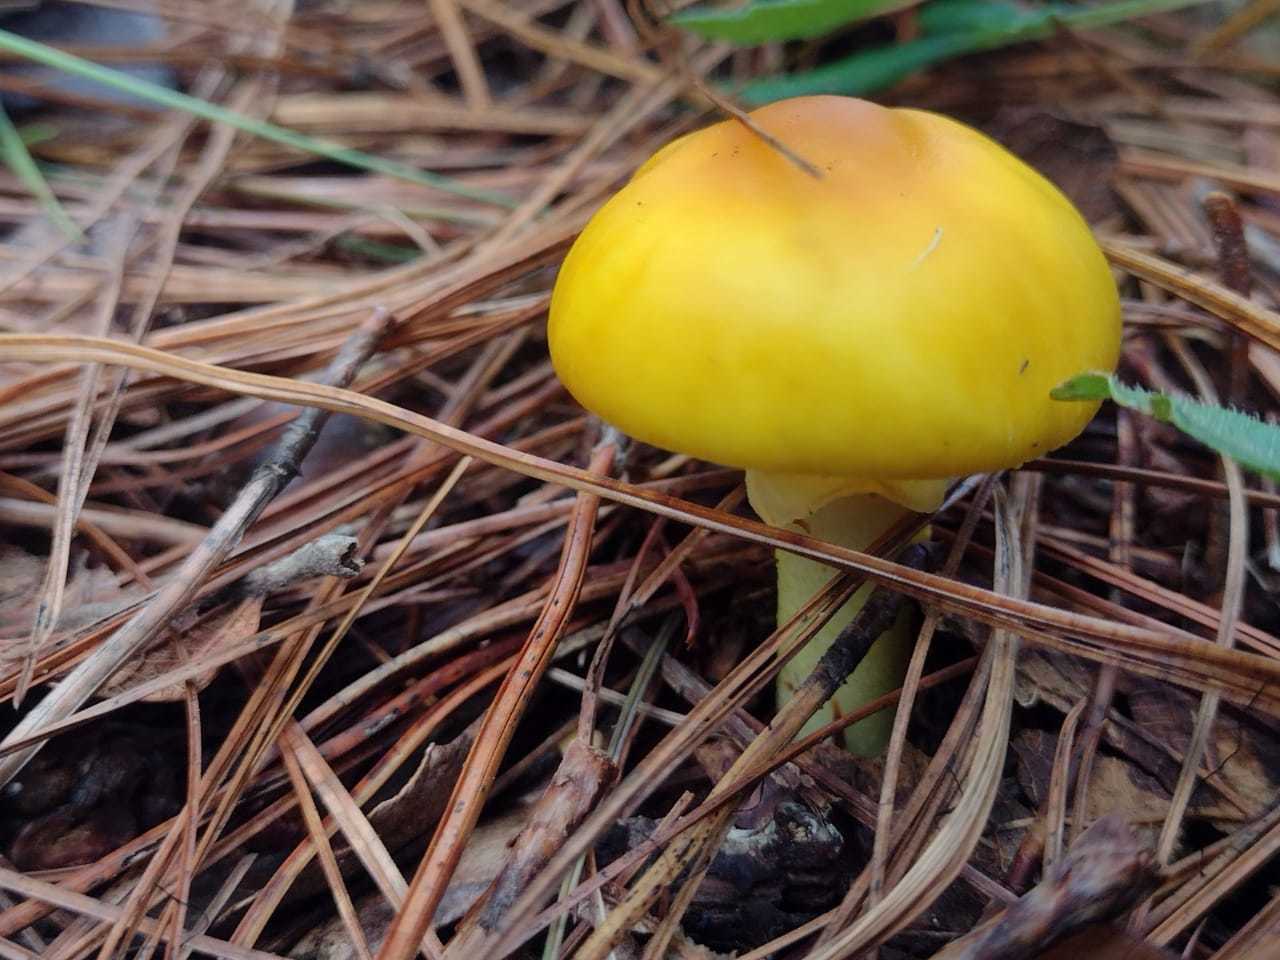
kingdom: Fungi
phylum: Basidiomycota
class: Agaricomycetes
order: Agaricales
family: Amanitaceae
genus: Amanita
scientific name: Amanita flavoconia
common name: Yellow patches
